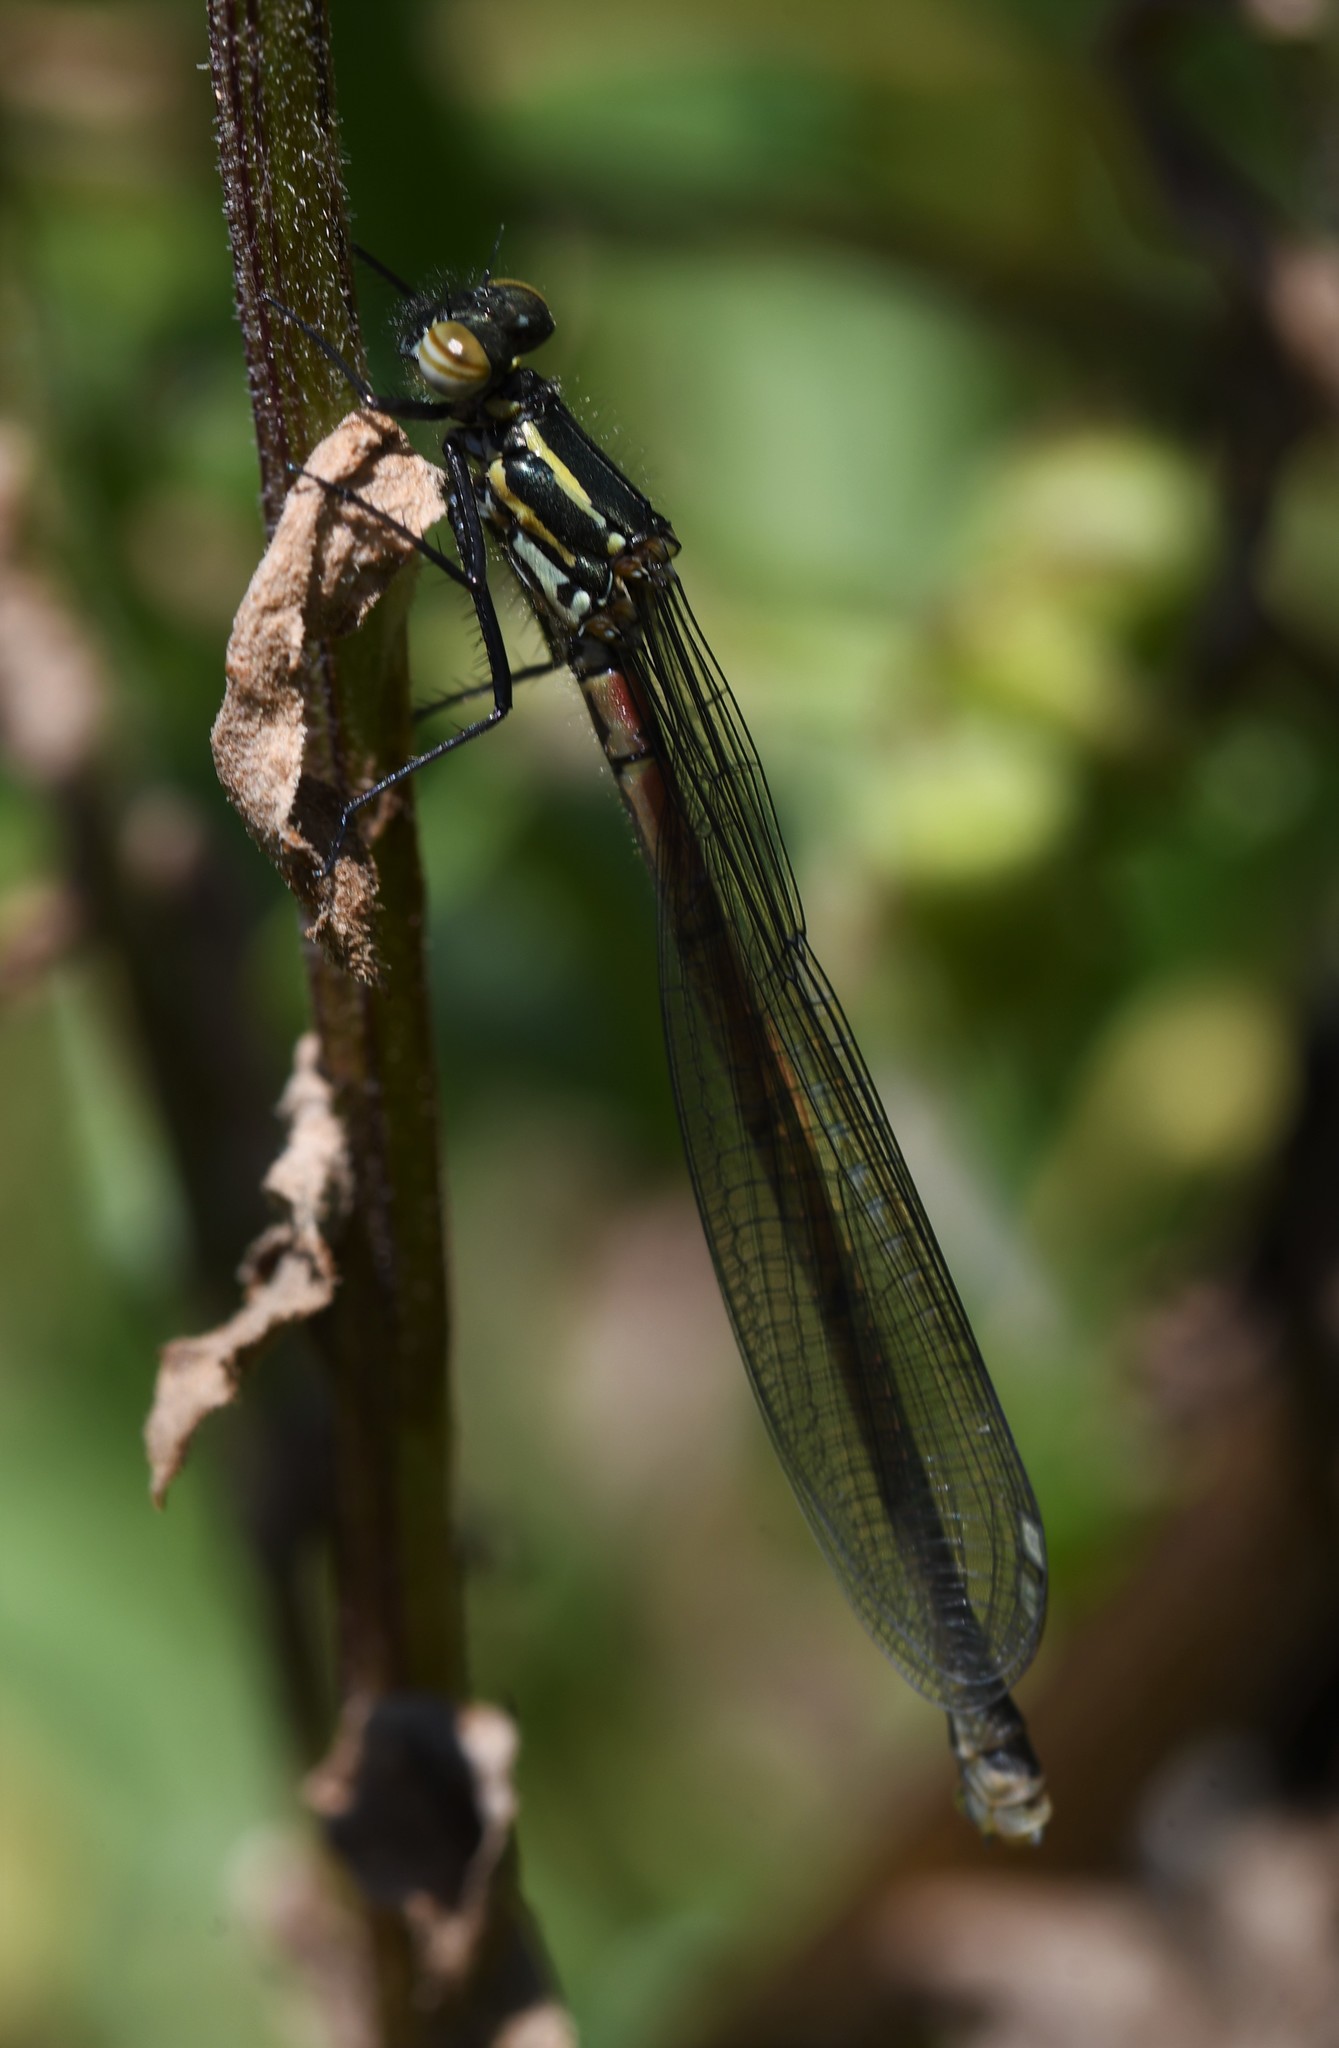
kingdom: Animalia
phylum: Arthropoda
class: Insecta
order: Odonata
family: Coenagrionidae
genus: Pyrrhosoma
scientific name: Pyrrhosoma nymphula
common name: Large red damsel
